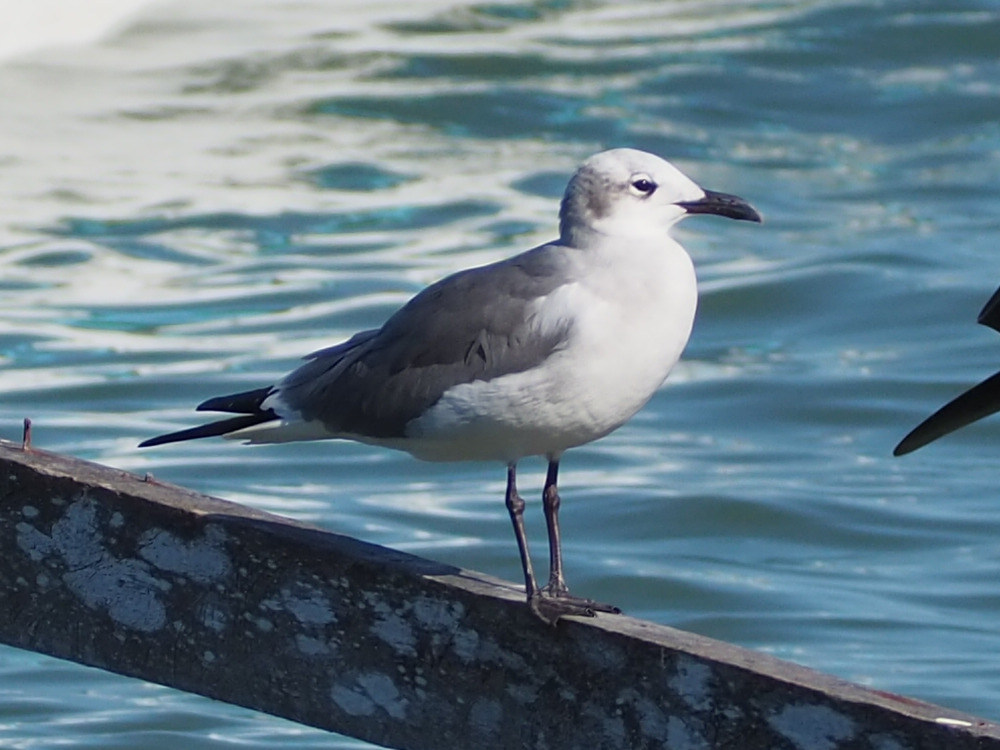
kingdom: Animalia
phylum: Chordata
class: Aves
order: Charadriiformes
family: Laridae
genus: Leucophaeus
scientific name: Leucophaeus atricilla
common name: Laughing gull
